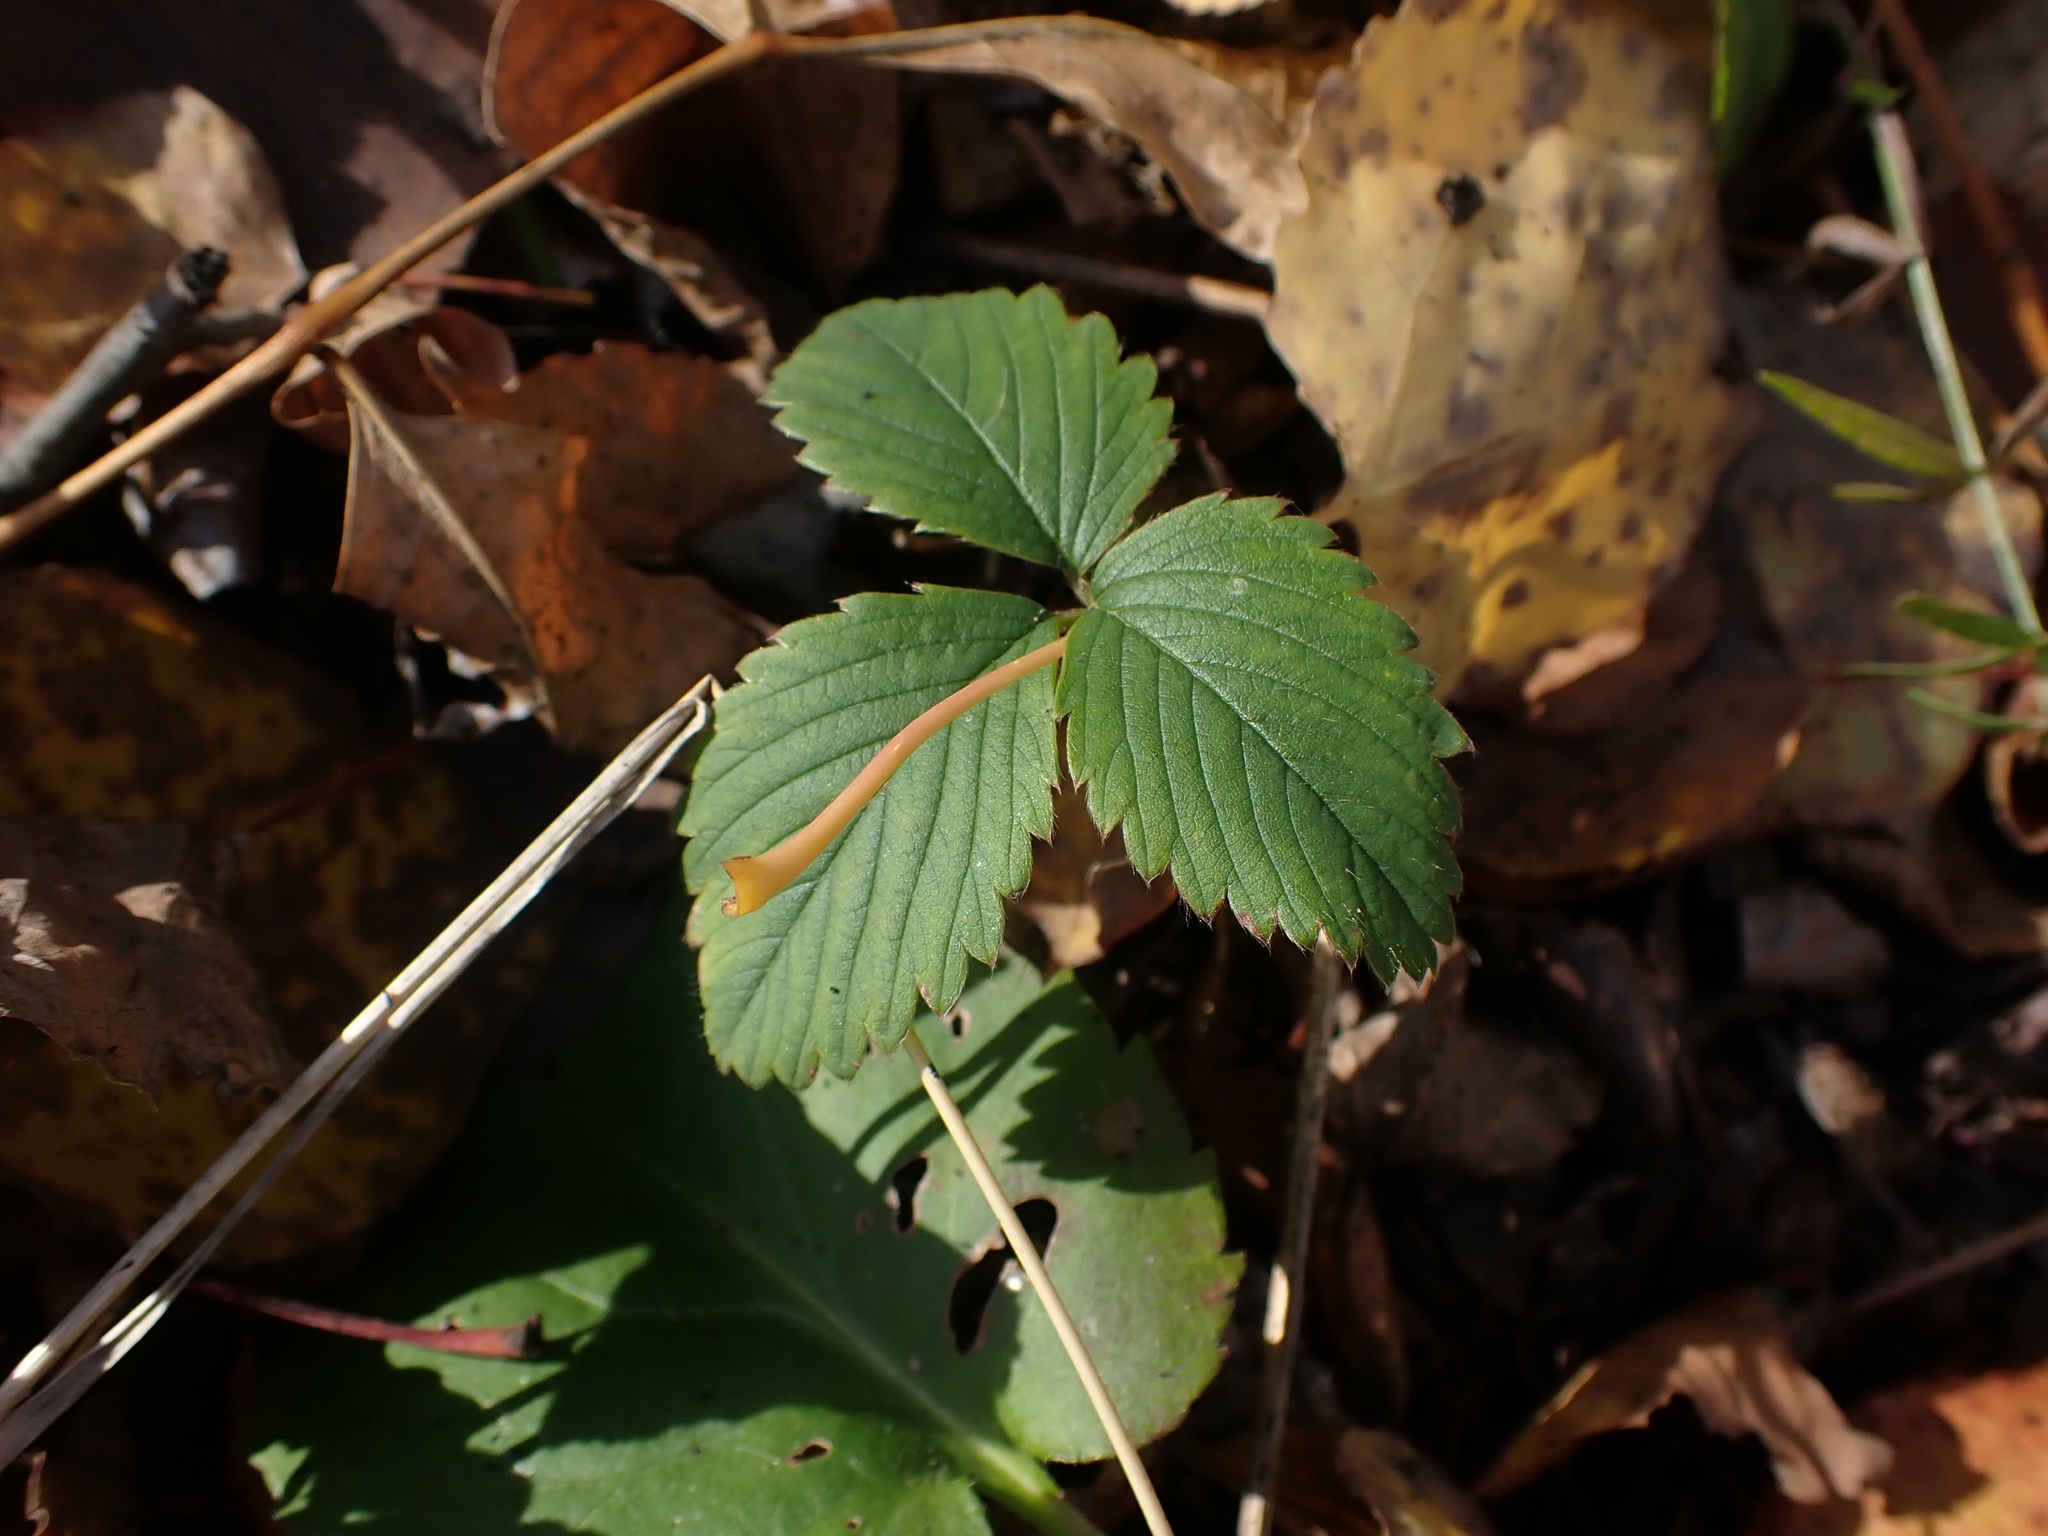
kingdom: Plantae
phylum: Tracheophyta
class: Magnoliopsida
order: Rosales
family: Rosaceae
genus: Fragaria
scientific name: Fragaria virginiana
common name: Thickleaved wild strawberry
